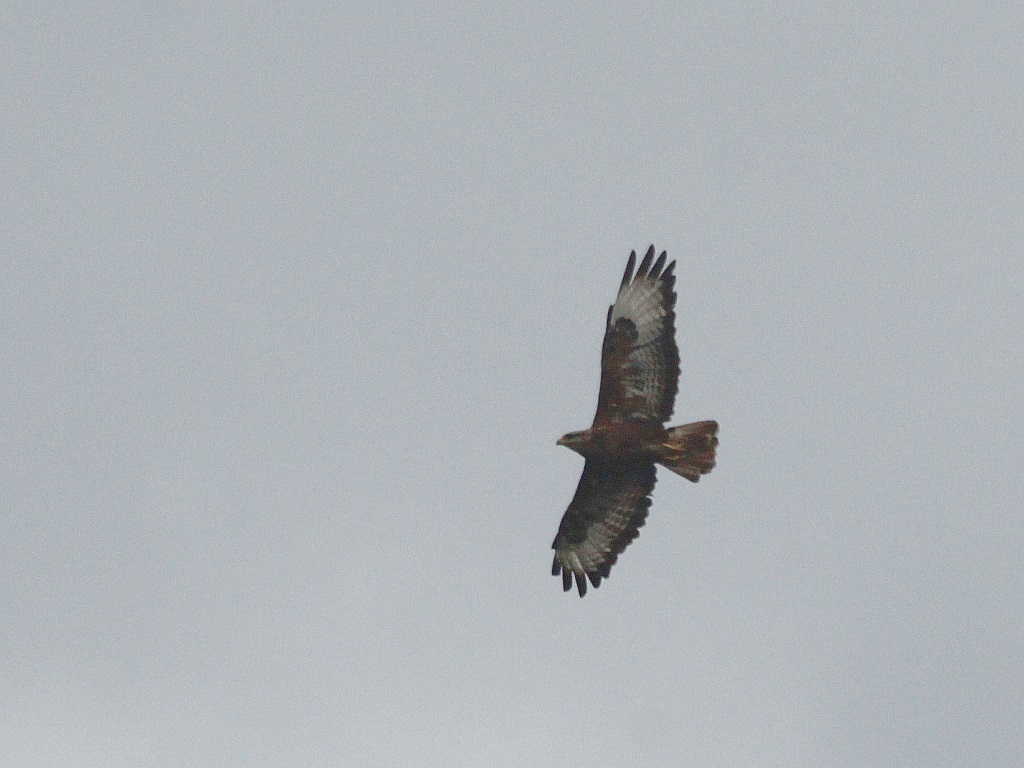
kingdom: Animalia
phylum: Chordata
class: Aves
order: Accipitriformes
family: Accipitridae
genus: Buteo
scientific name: Buteo buteo
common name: Common buzzard
